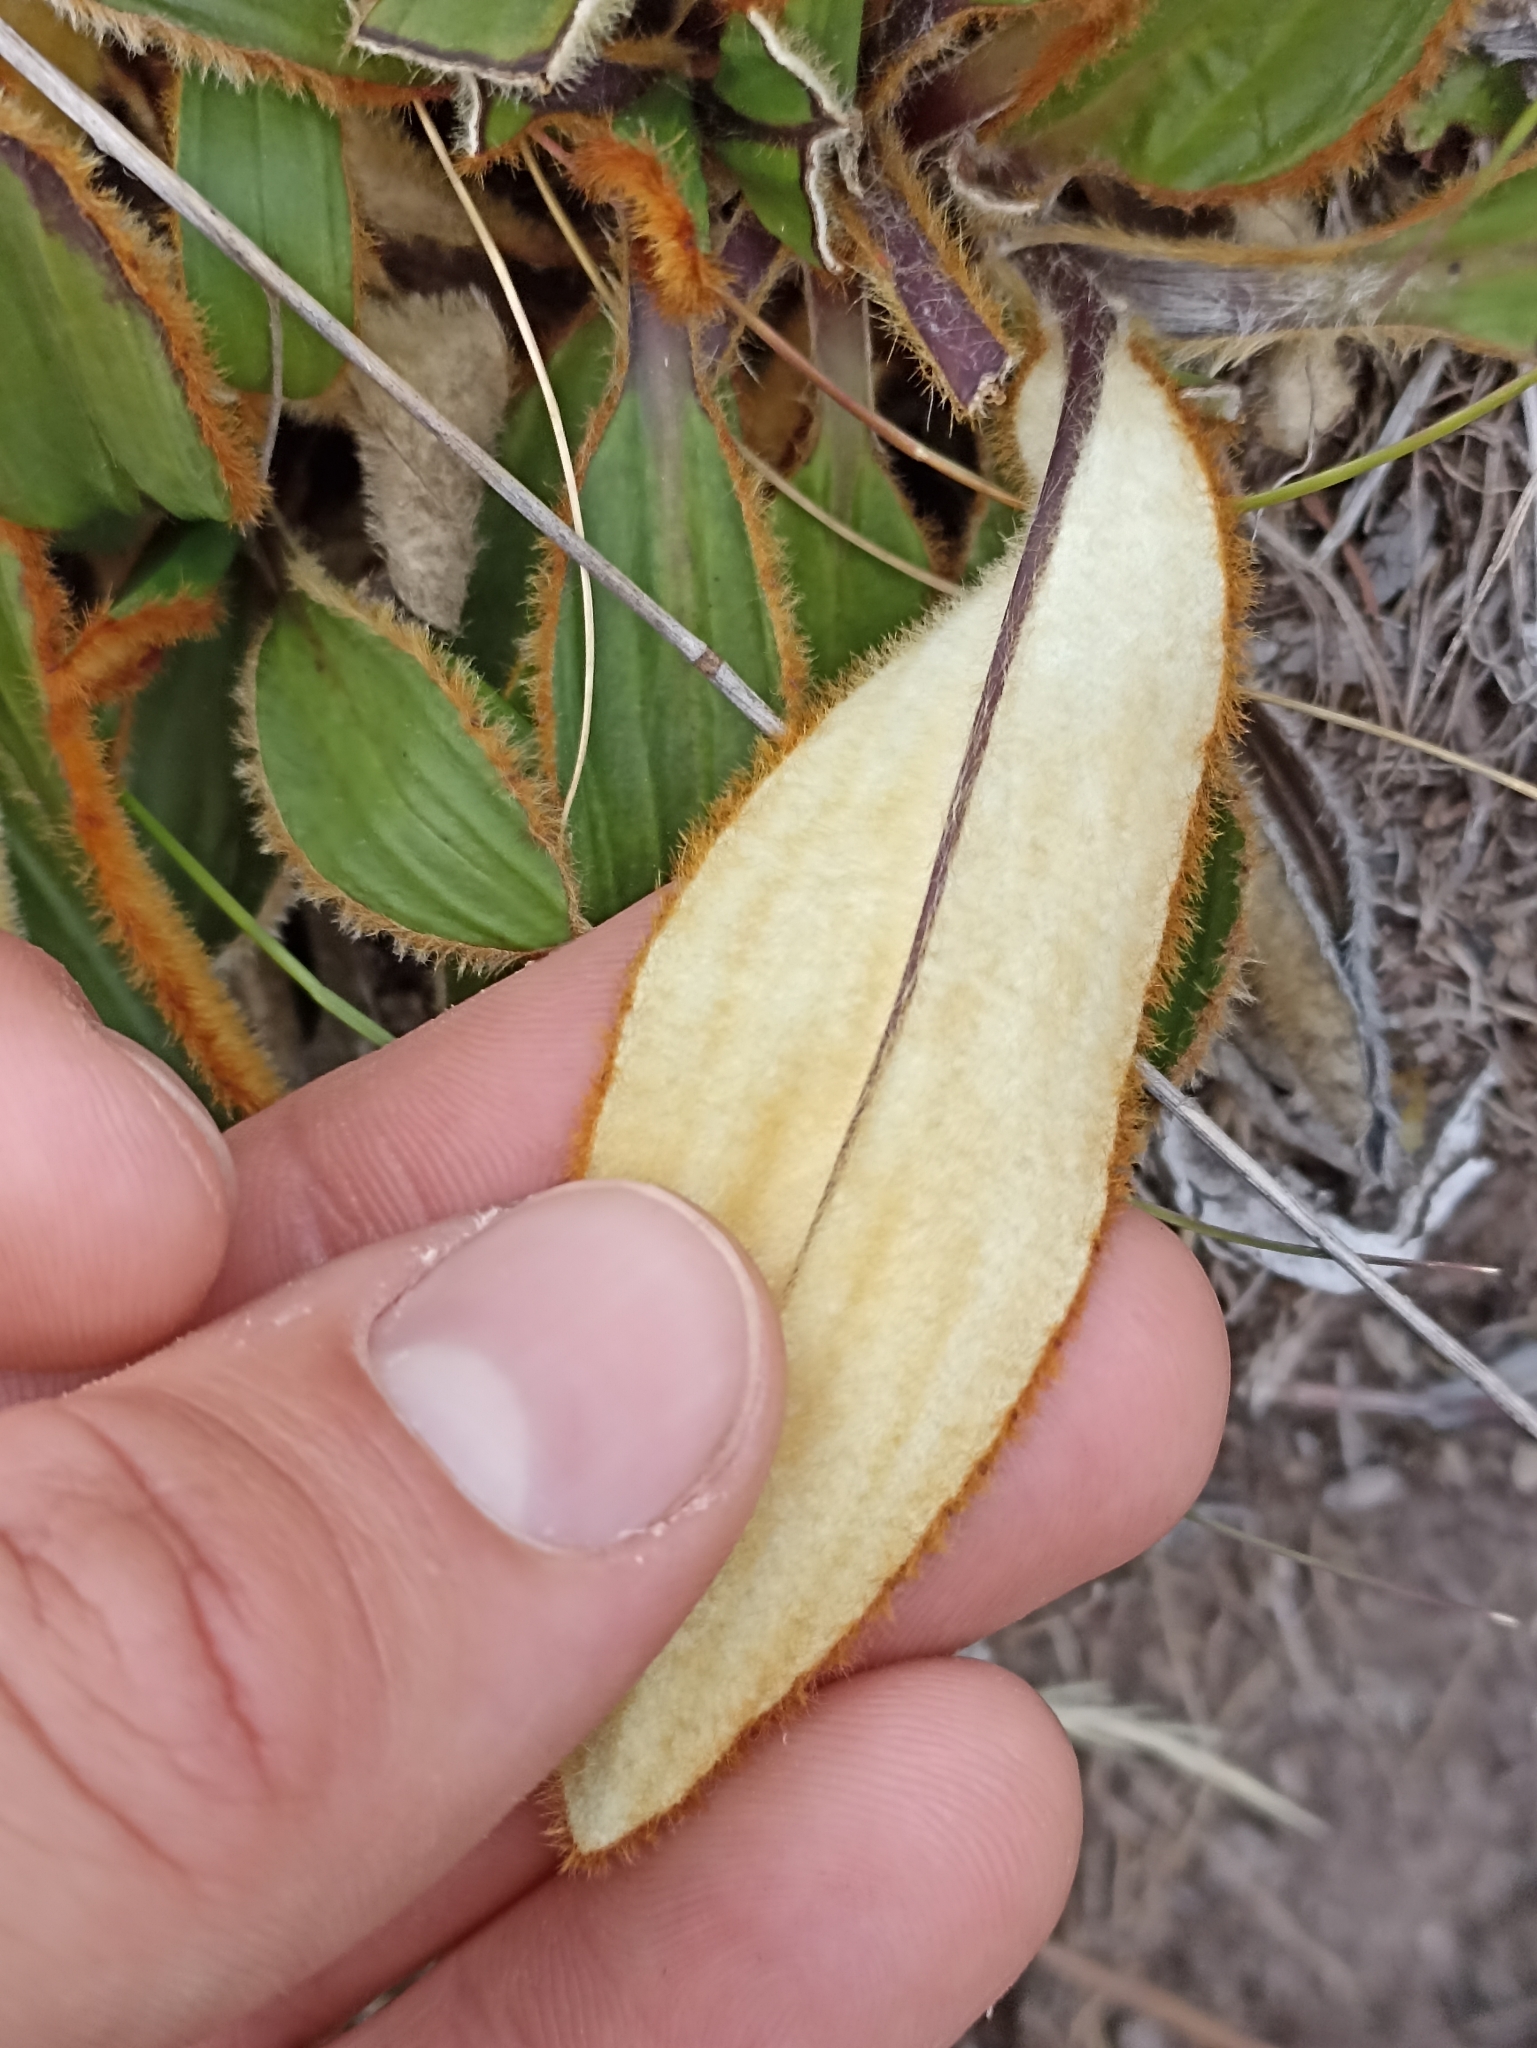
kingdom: Plantae
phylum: Tracheophyta
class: Magnoliopsida
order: Asterales
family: Asteraceae
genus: Celmisia
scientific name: Celmisia traversii
